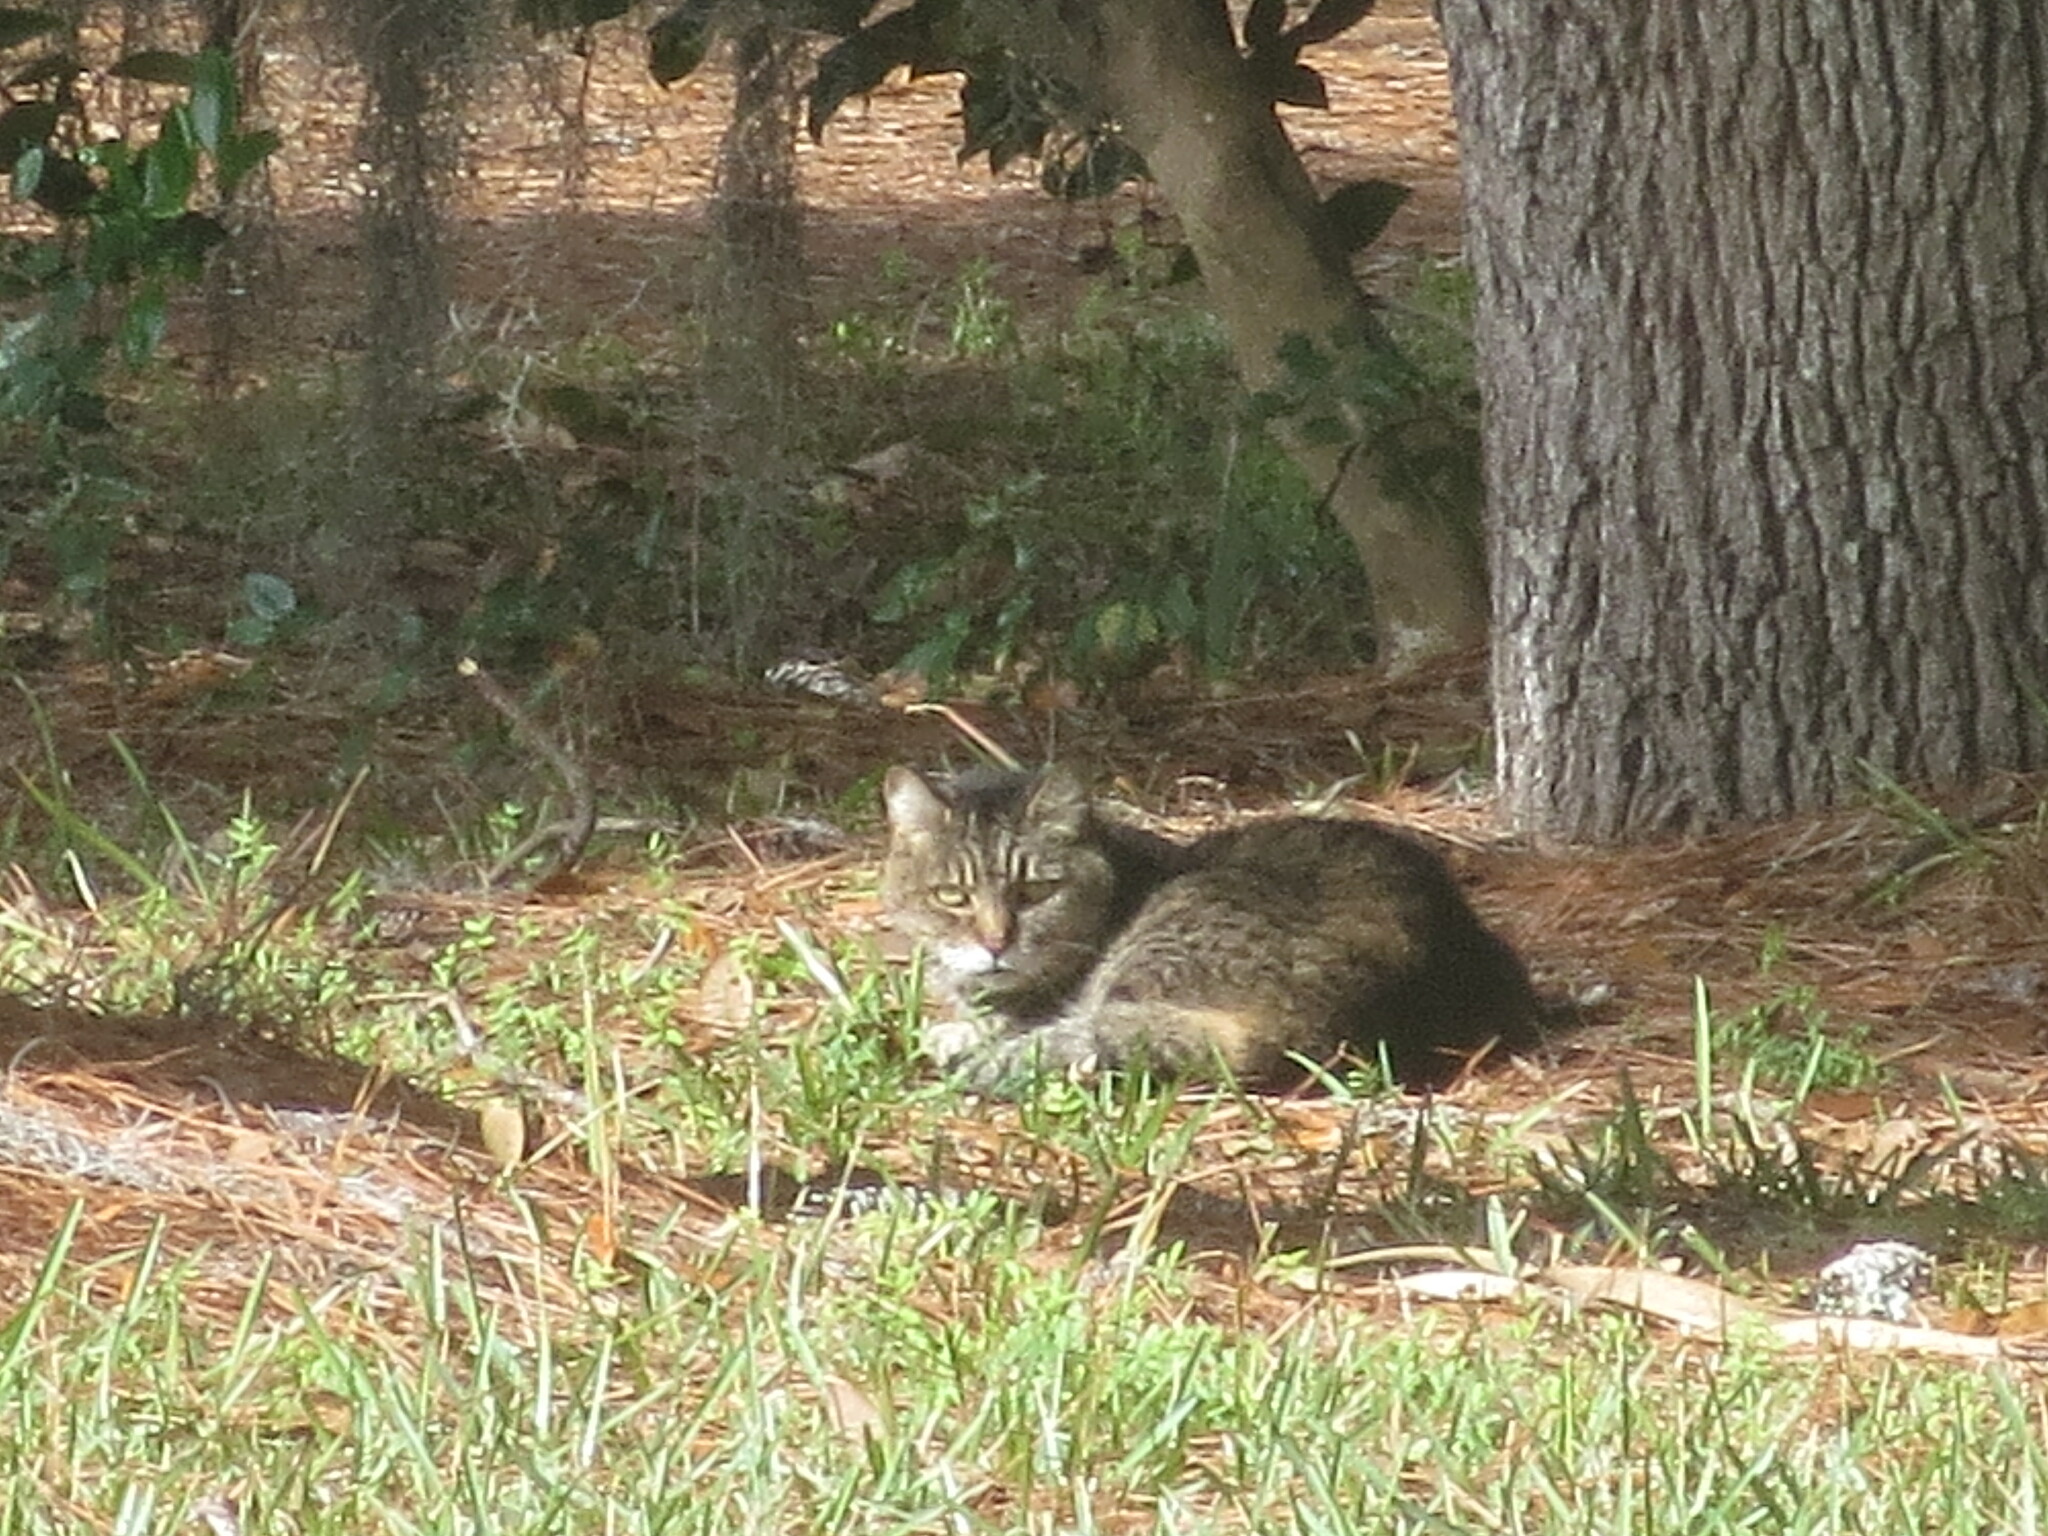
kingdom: Animalia
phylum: Chordata
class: Mammalia
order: Carnivora
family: Felidae
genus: Felis
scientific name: Felis catus
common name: Domestic cat
